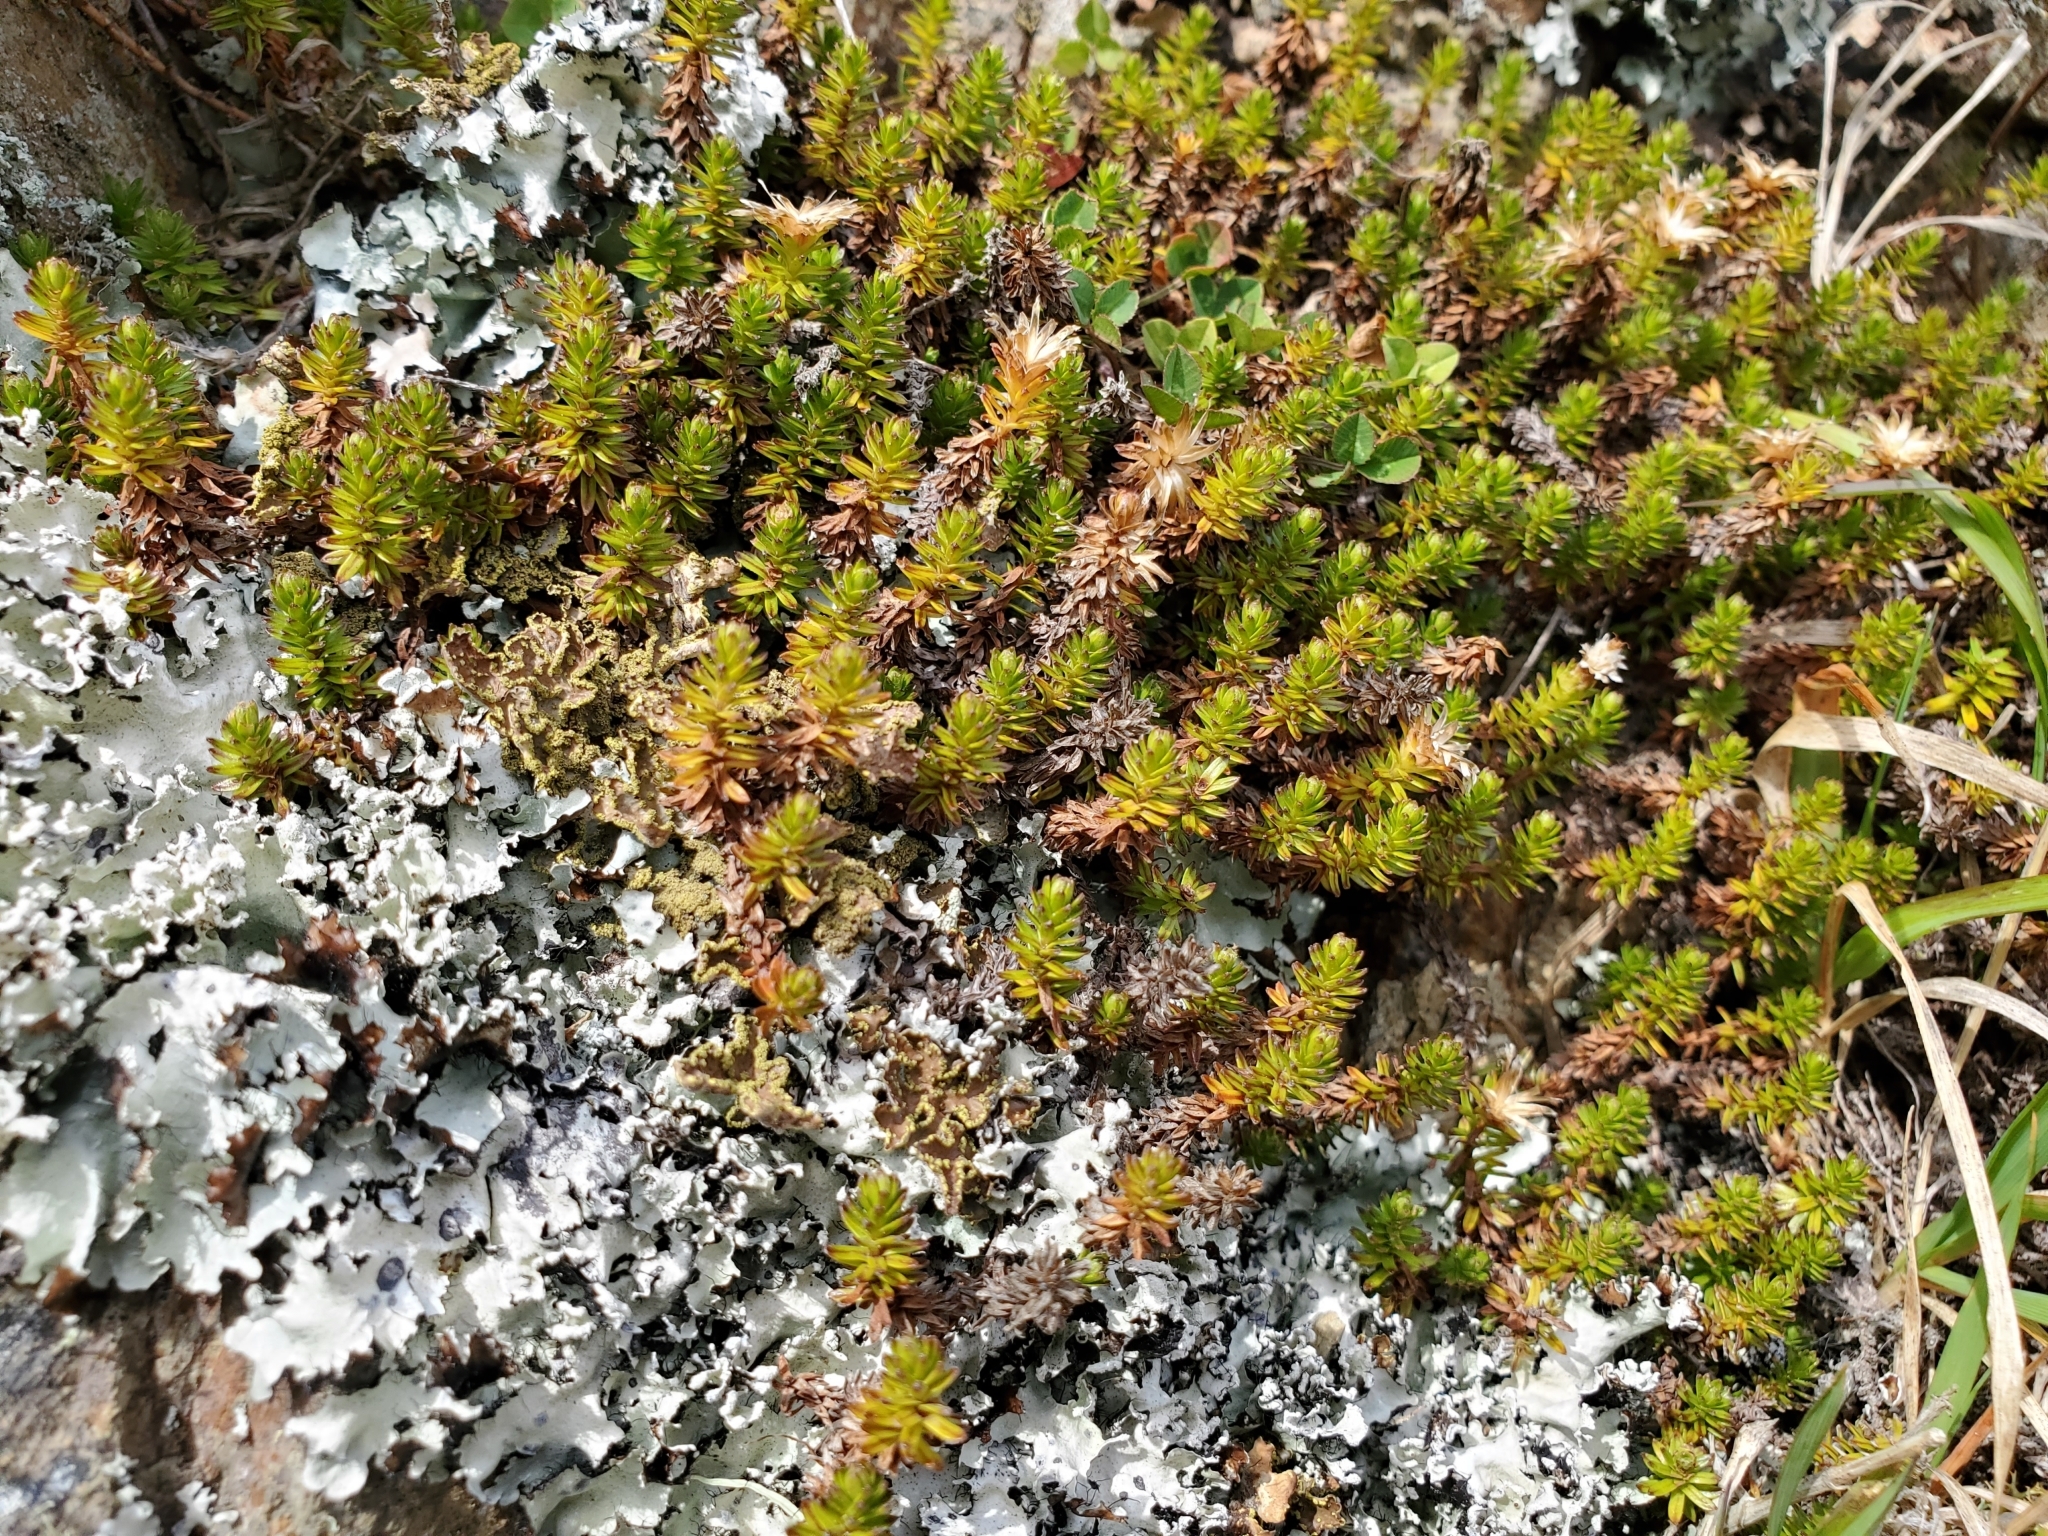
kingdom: Plantae
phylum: Tracheophyta
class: Magnoliopsida
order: Asterales
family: Asteraceae
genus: Raoulia
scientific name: Raoulia glabra
